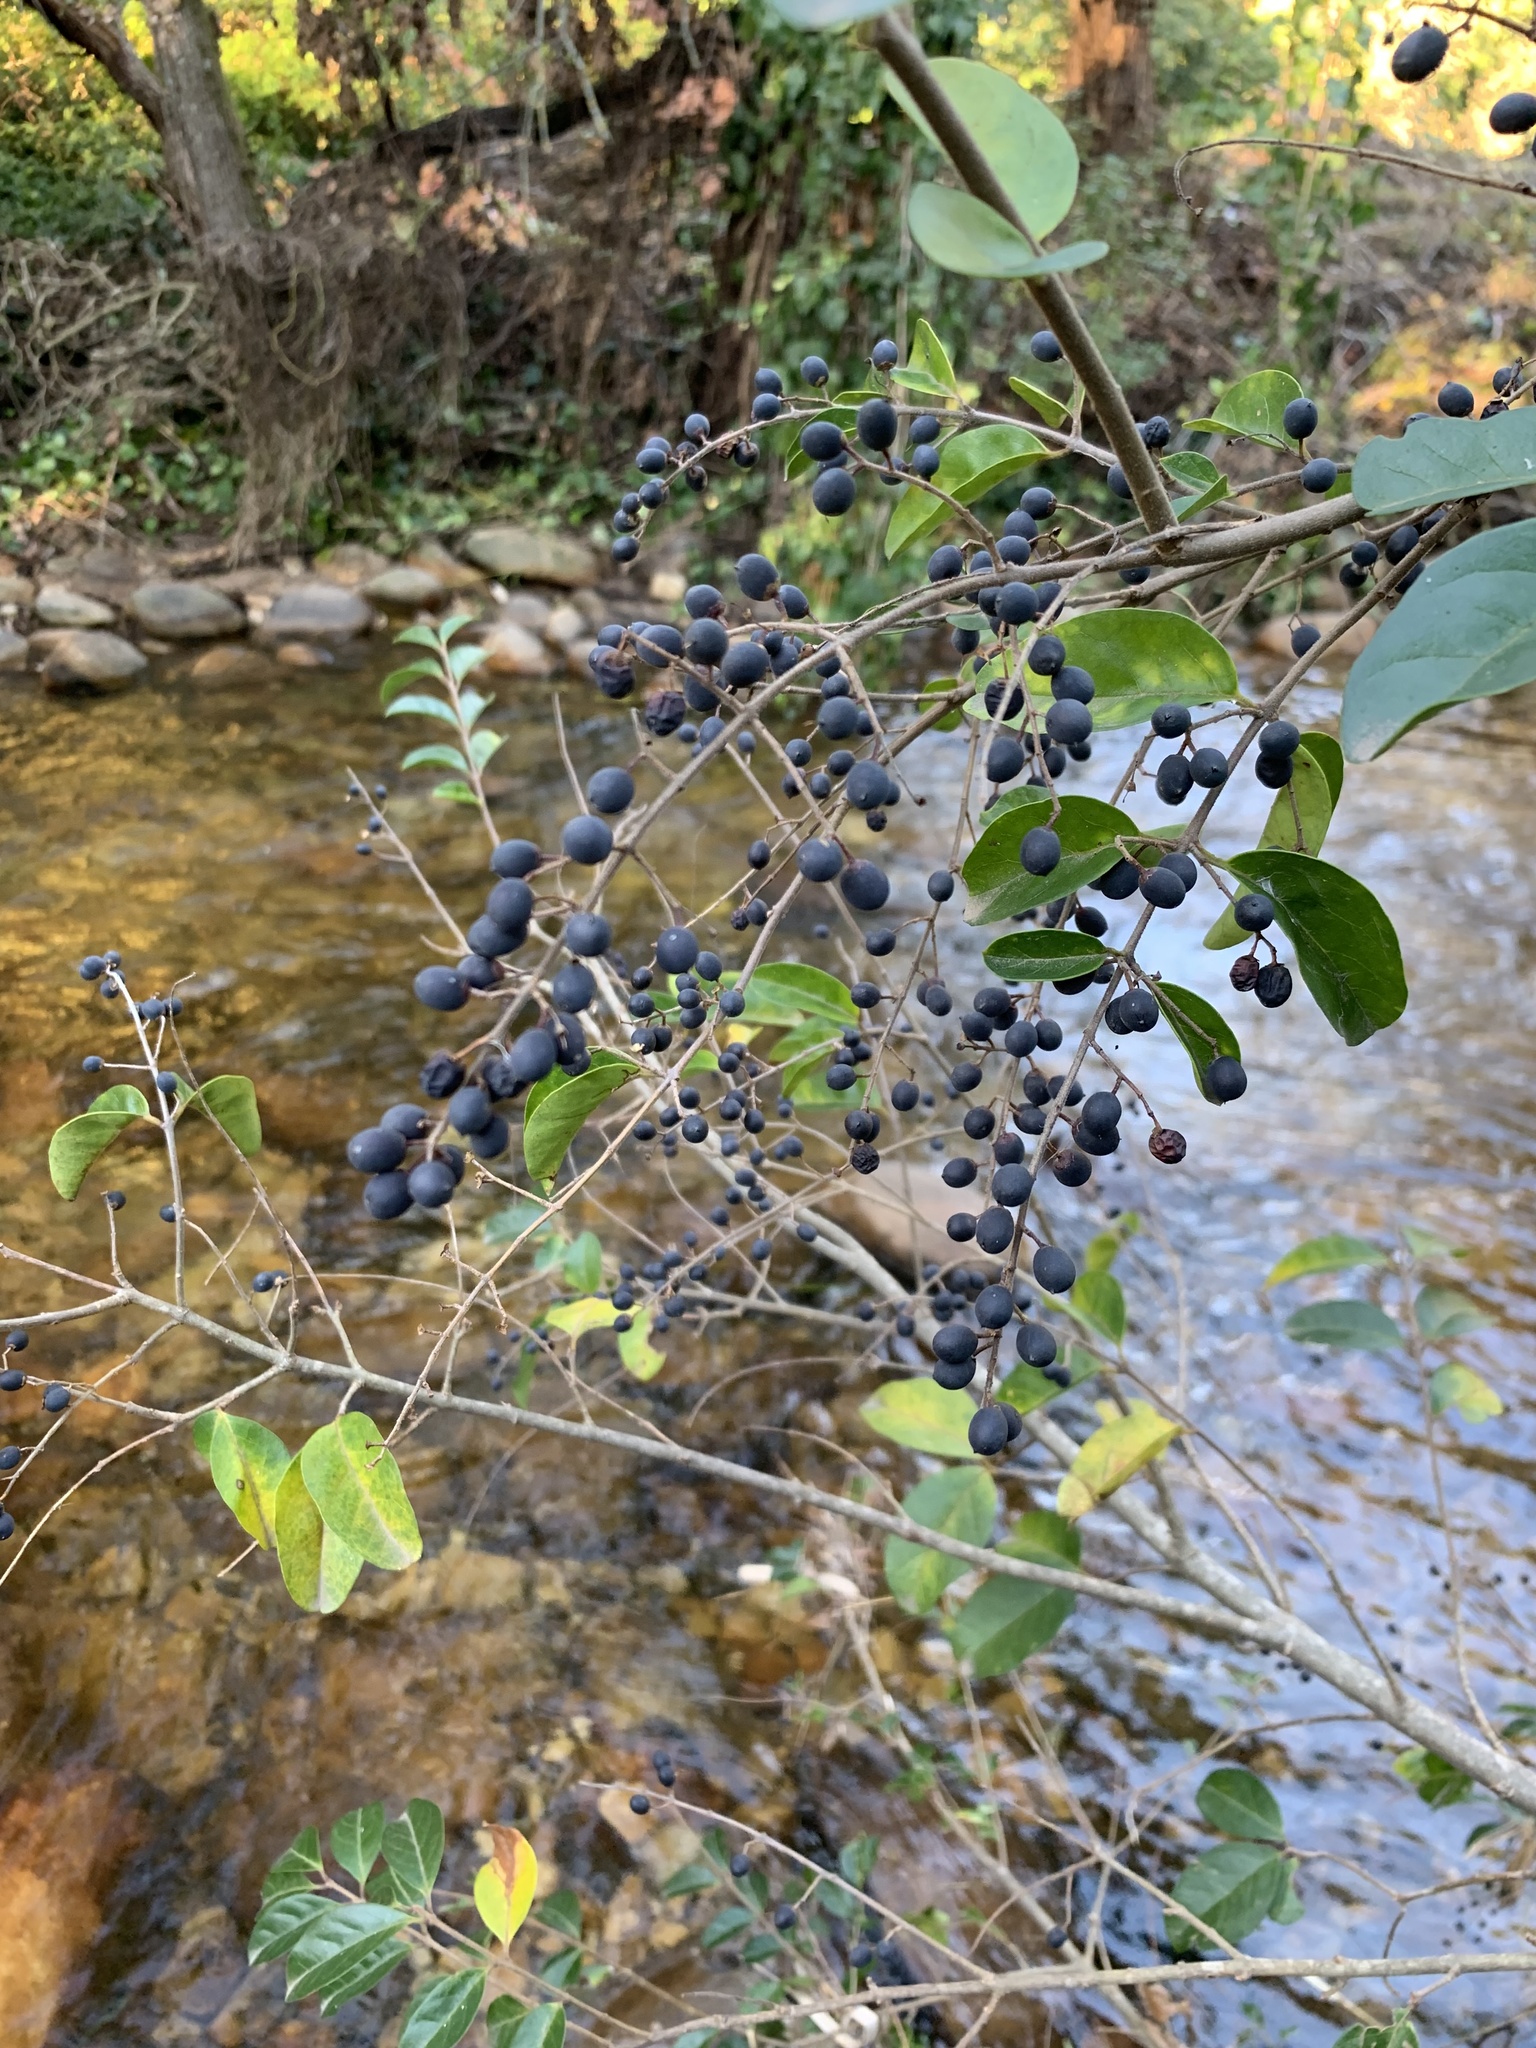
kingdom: Plantae
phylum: Tracheophyta
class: Magnoliopsida
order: Lamiales
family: Oleaceae
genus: Ligustrum
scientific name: Ligustrum sinense
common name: Chinese privet
